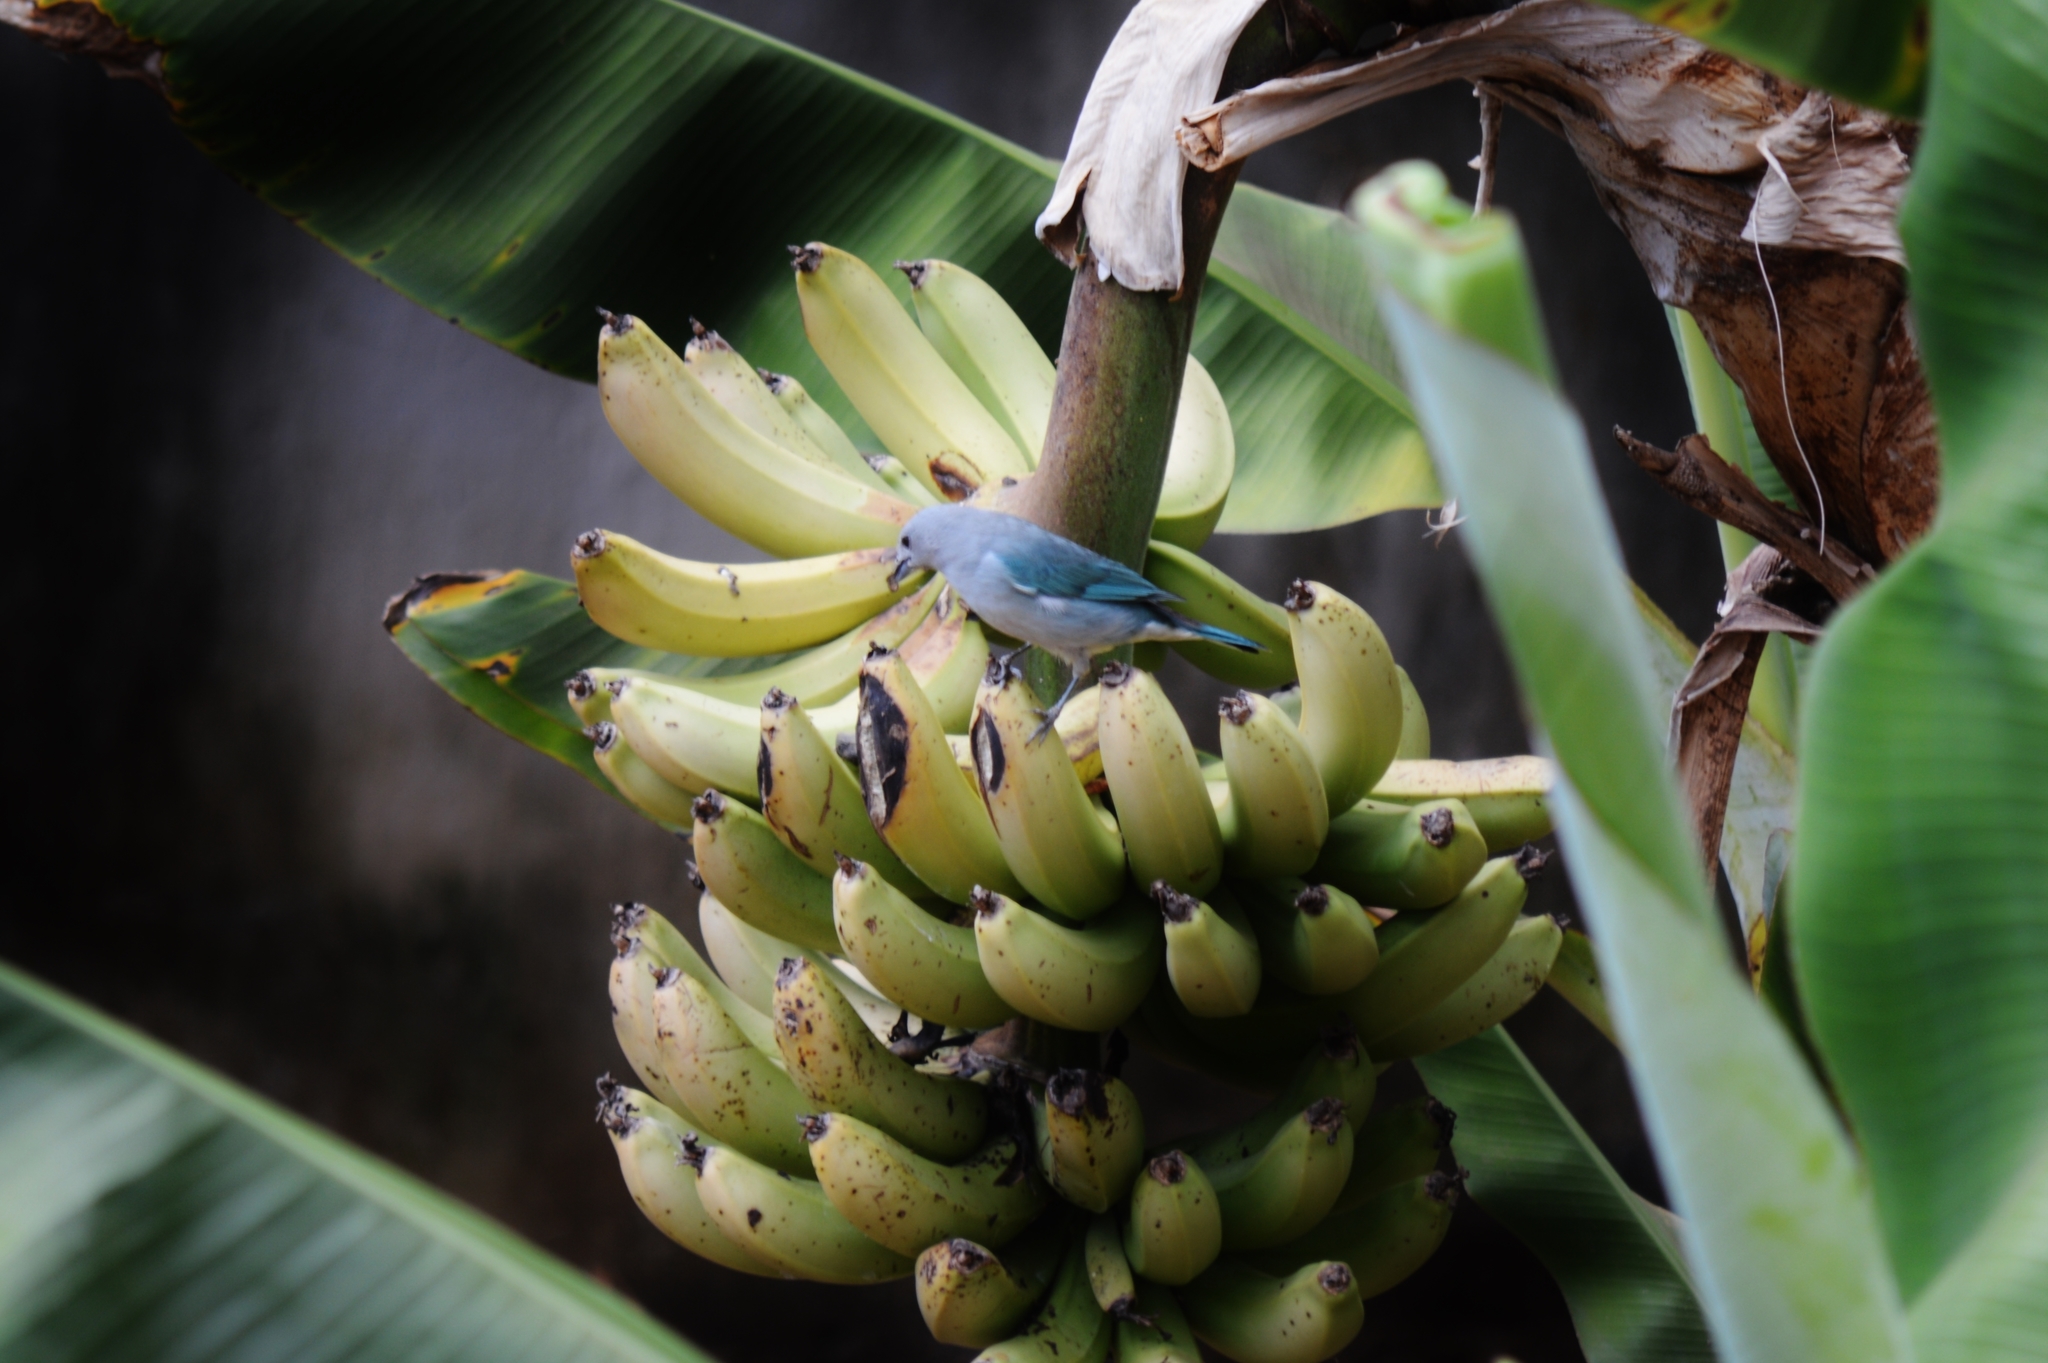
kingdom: Animalia
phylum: Chordata
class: Aves
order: Passeriformes
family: Thraupidae
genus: Thraupis
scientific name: Thraupis sayaca
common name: Sayaca tanager
